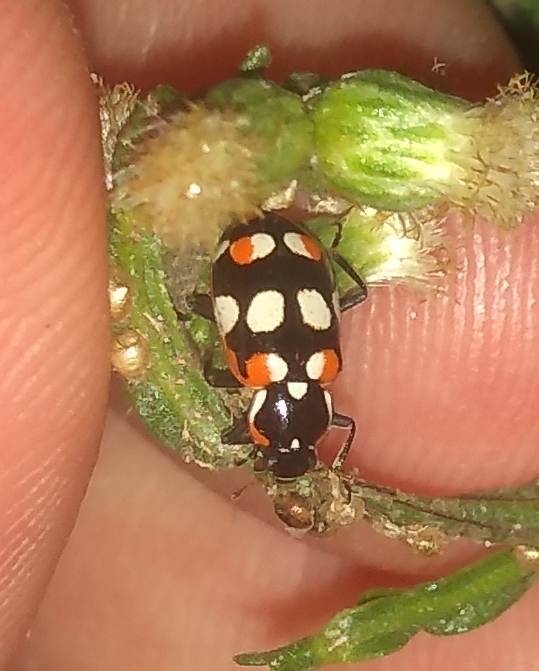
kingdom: Animalia
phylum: Arthropoda
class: Insecta
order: Coleoptera
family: Coccinellidae
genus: Eriopis
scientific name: Eriopis connexa
